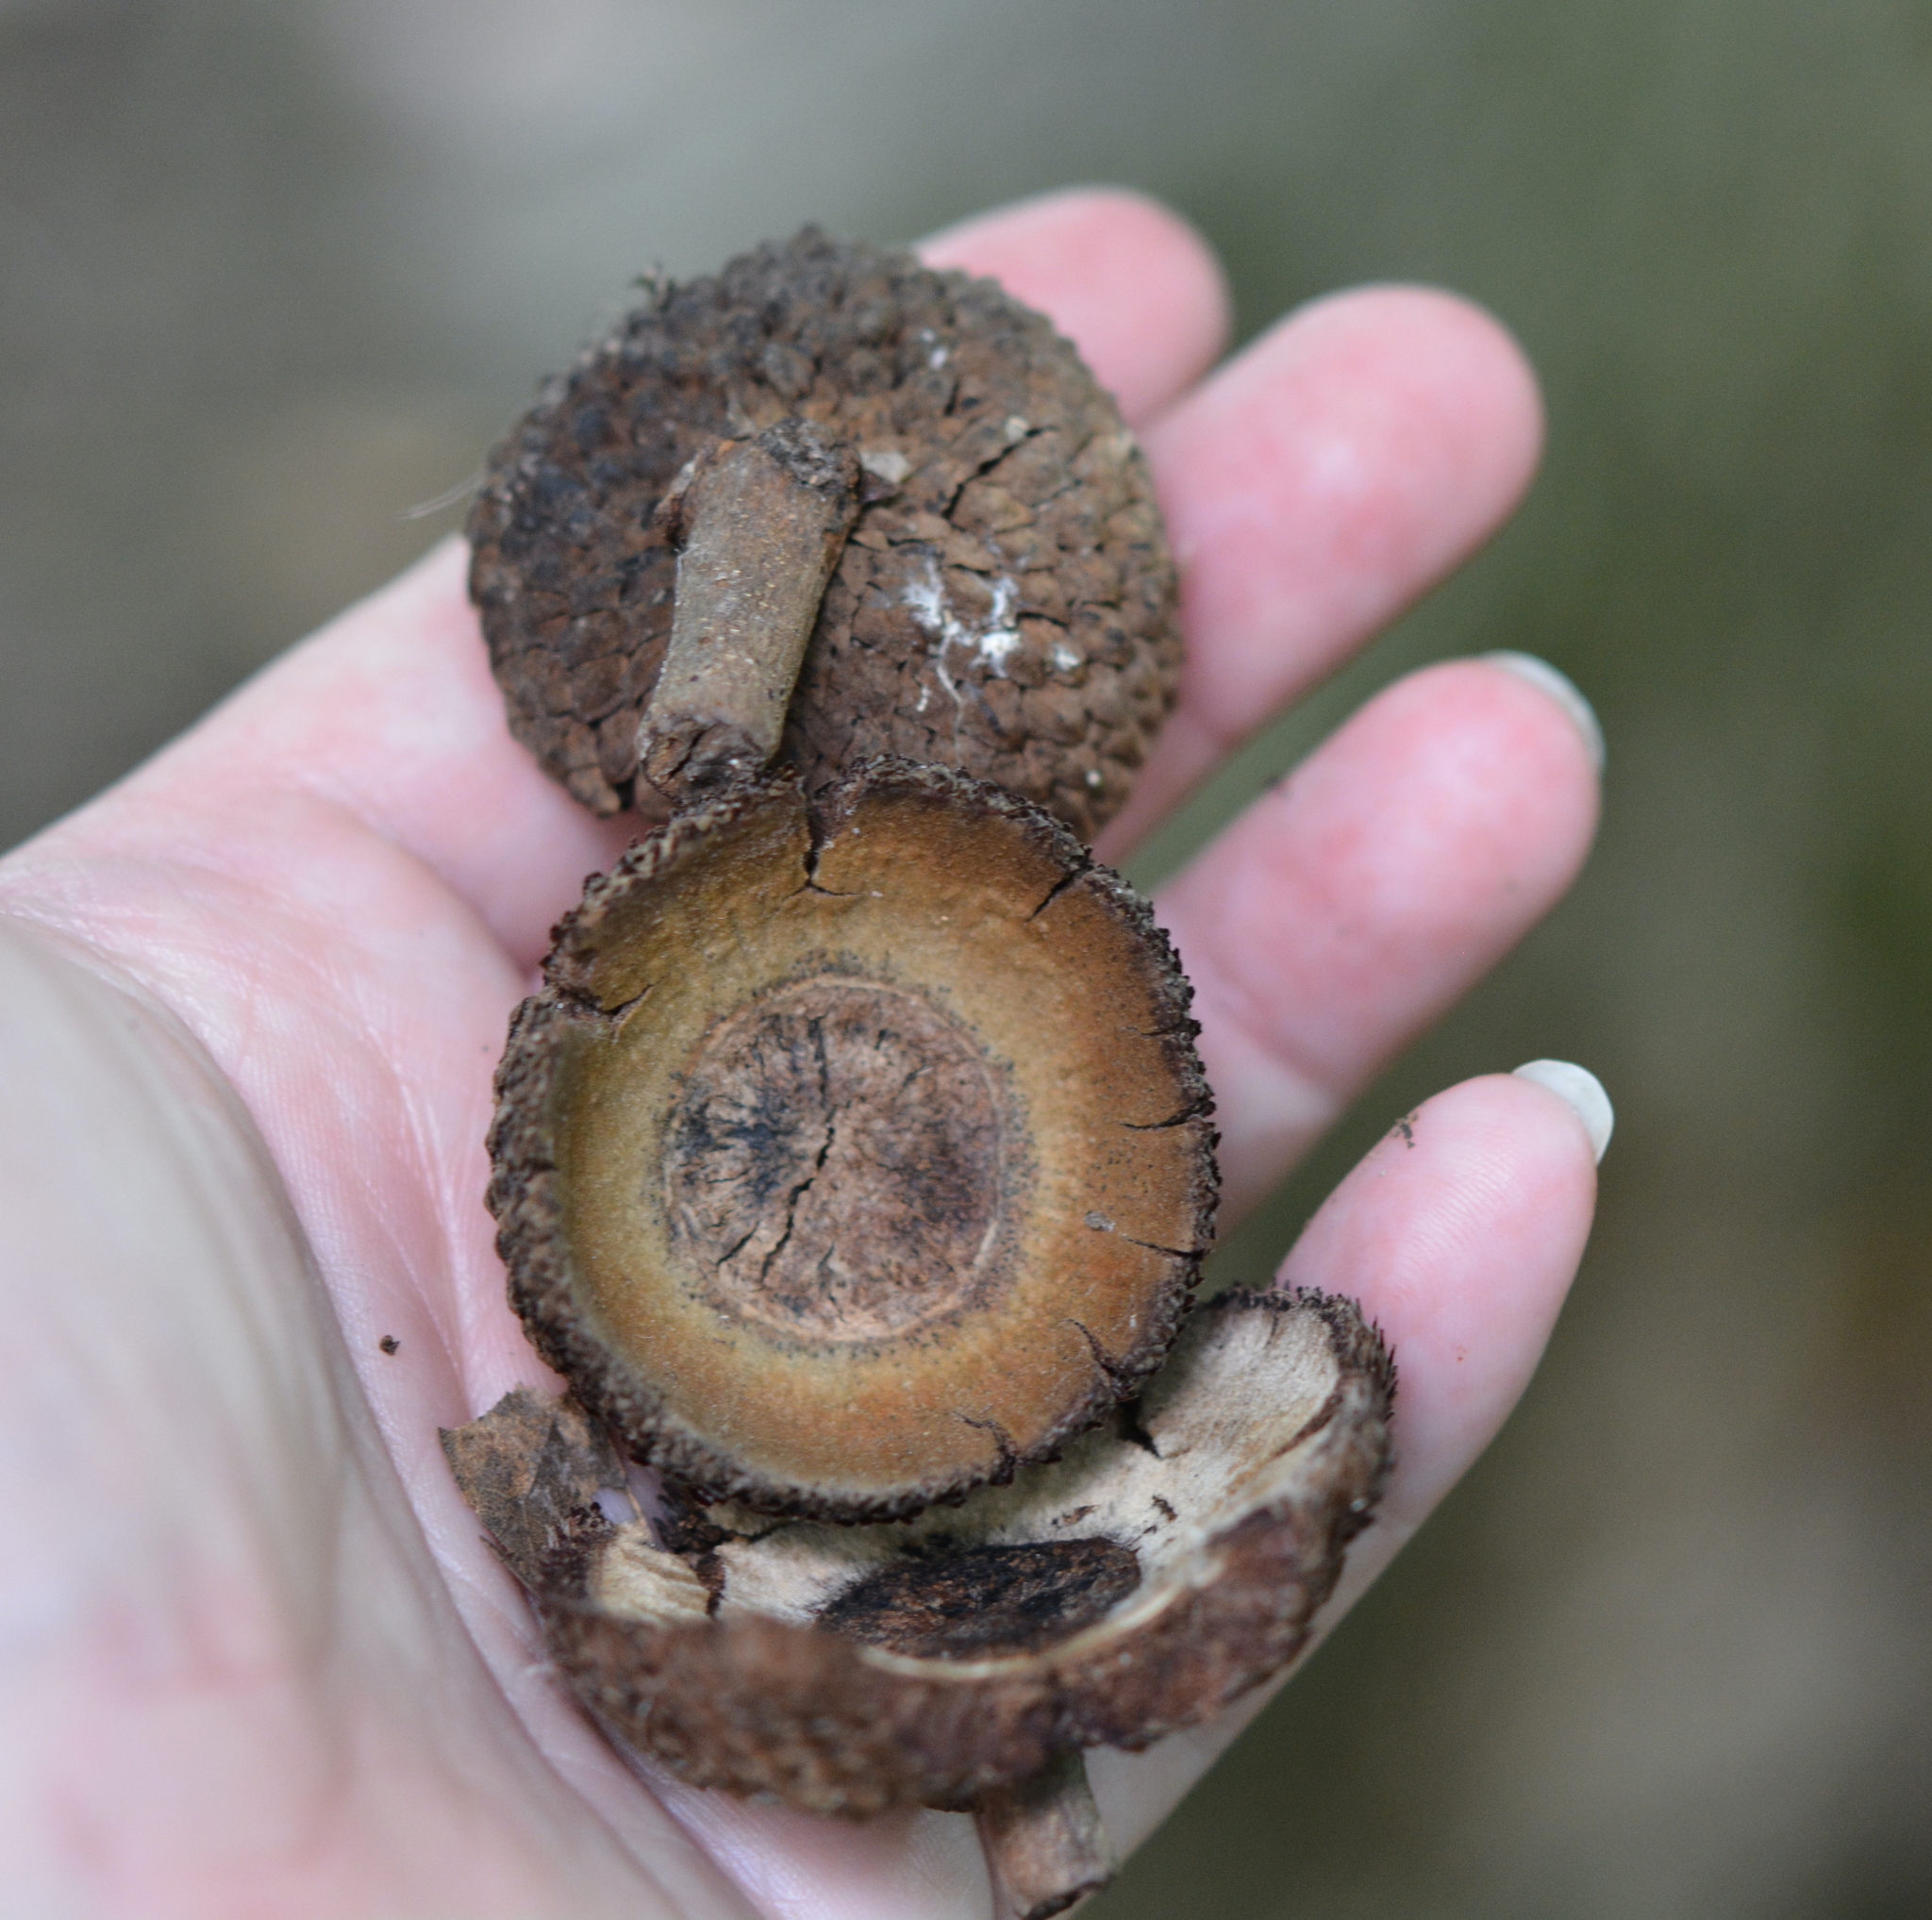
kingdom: Plantae
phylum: Tracheophyta
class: Magnoliopsida
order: Fagales
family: Fagaceae
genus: Quercus
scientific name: Quercus michauxii
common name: Swamp chestnut oak
